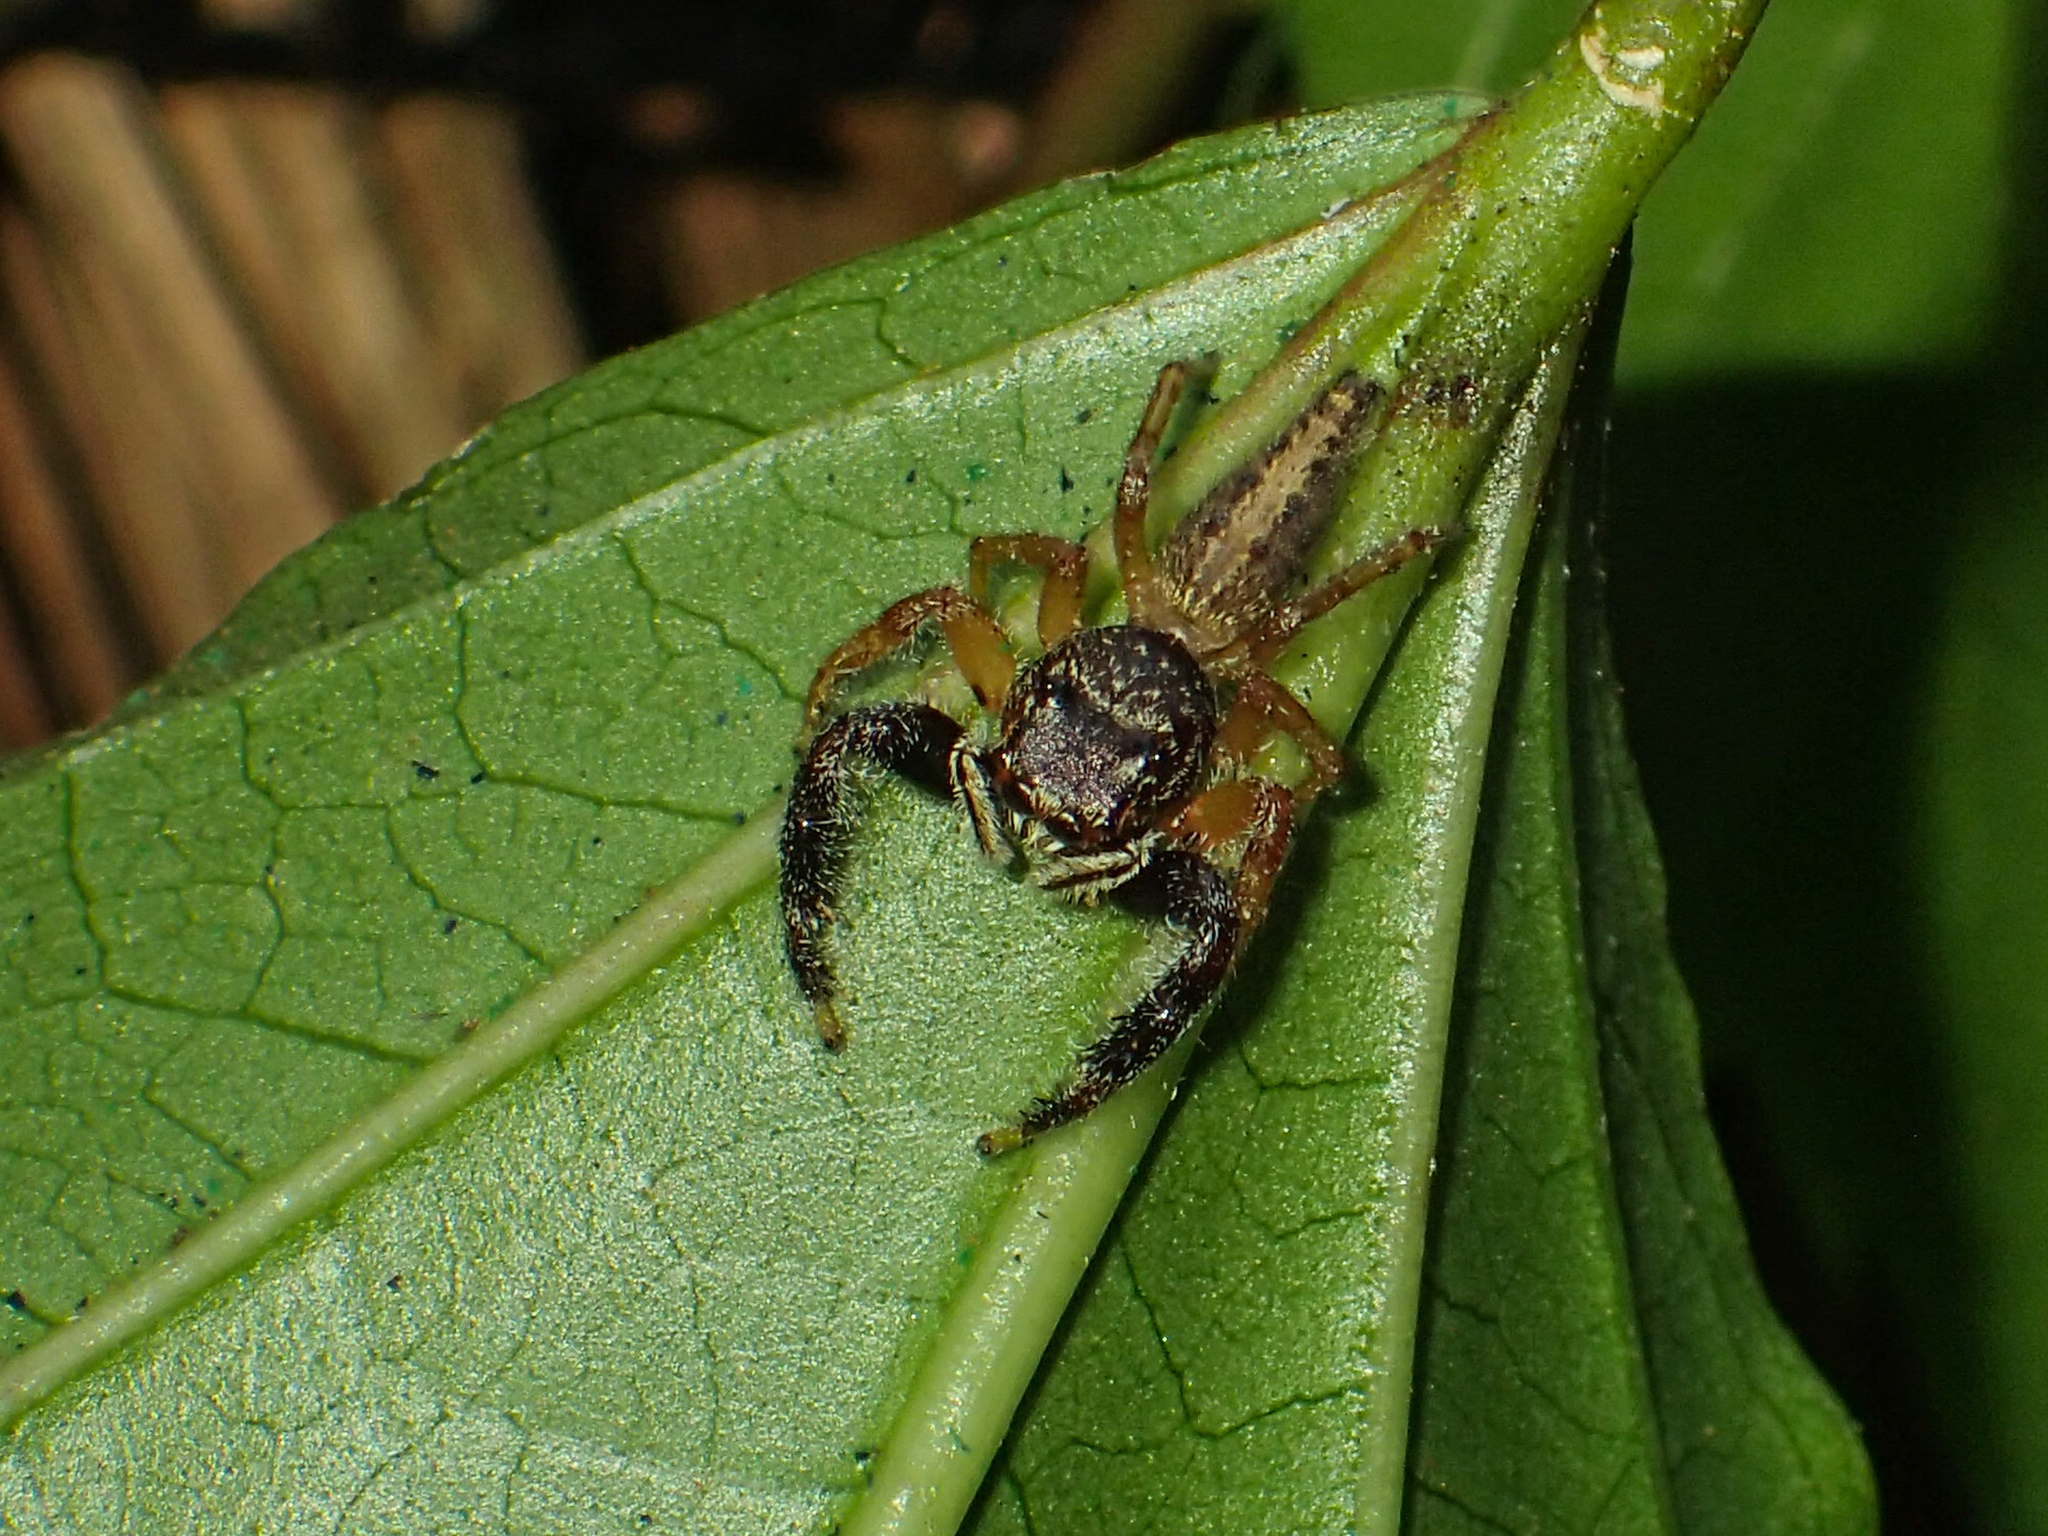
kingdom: Animalia
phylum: Arthropoda
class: Arachnida
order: Araneae
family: Salticidae
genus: Bavia
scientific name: Bavia sexpunctata
